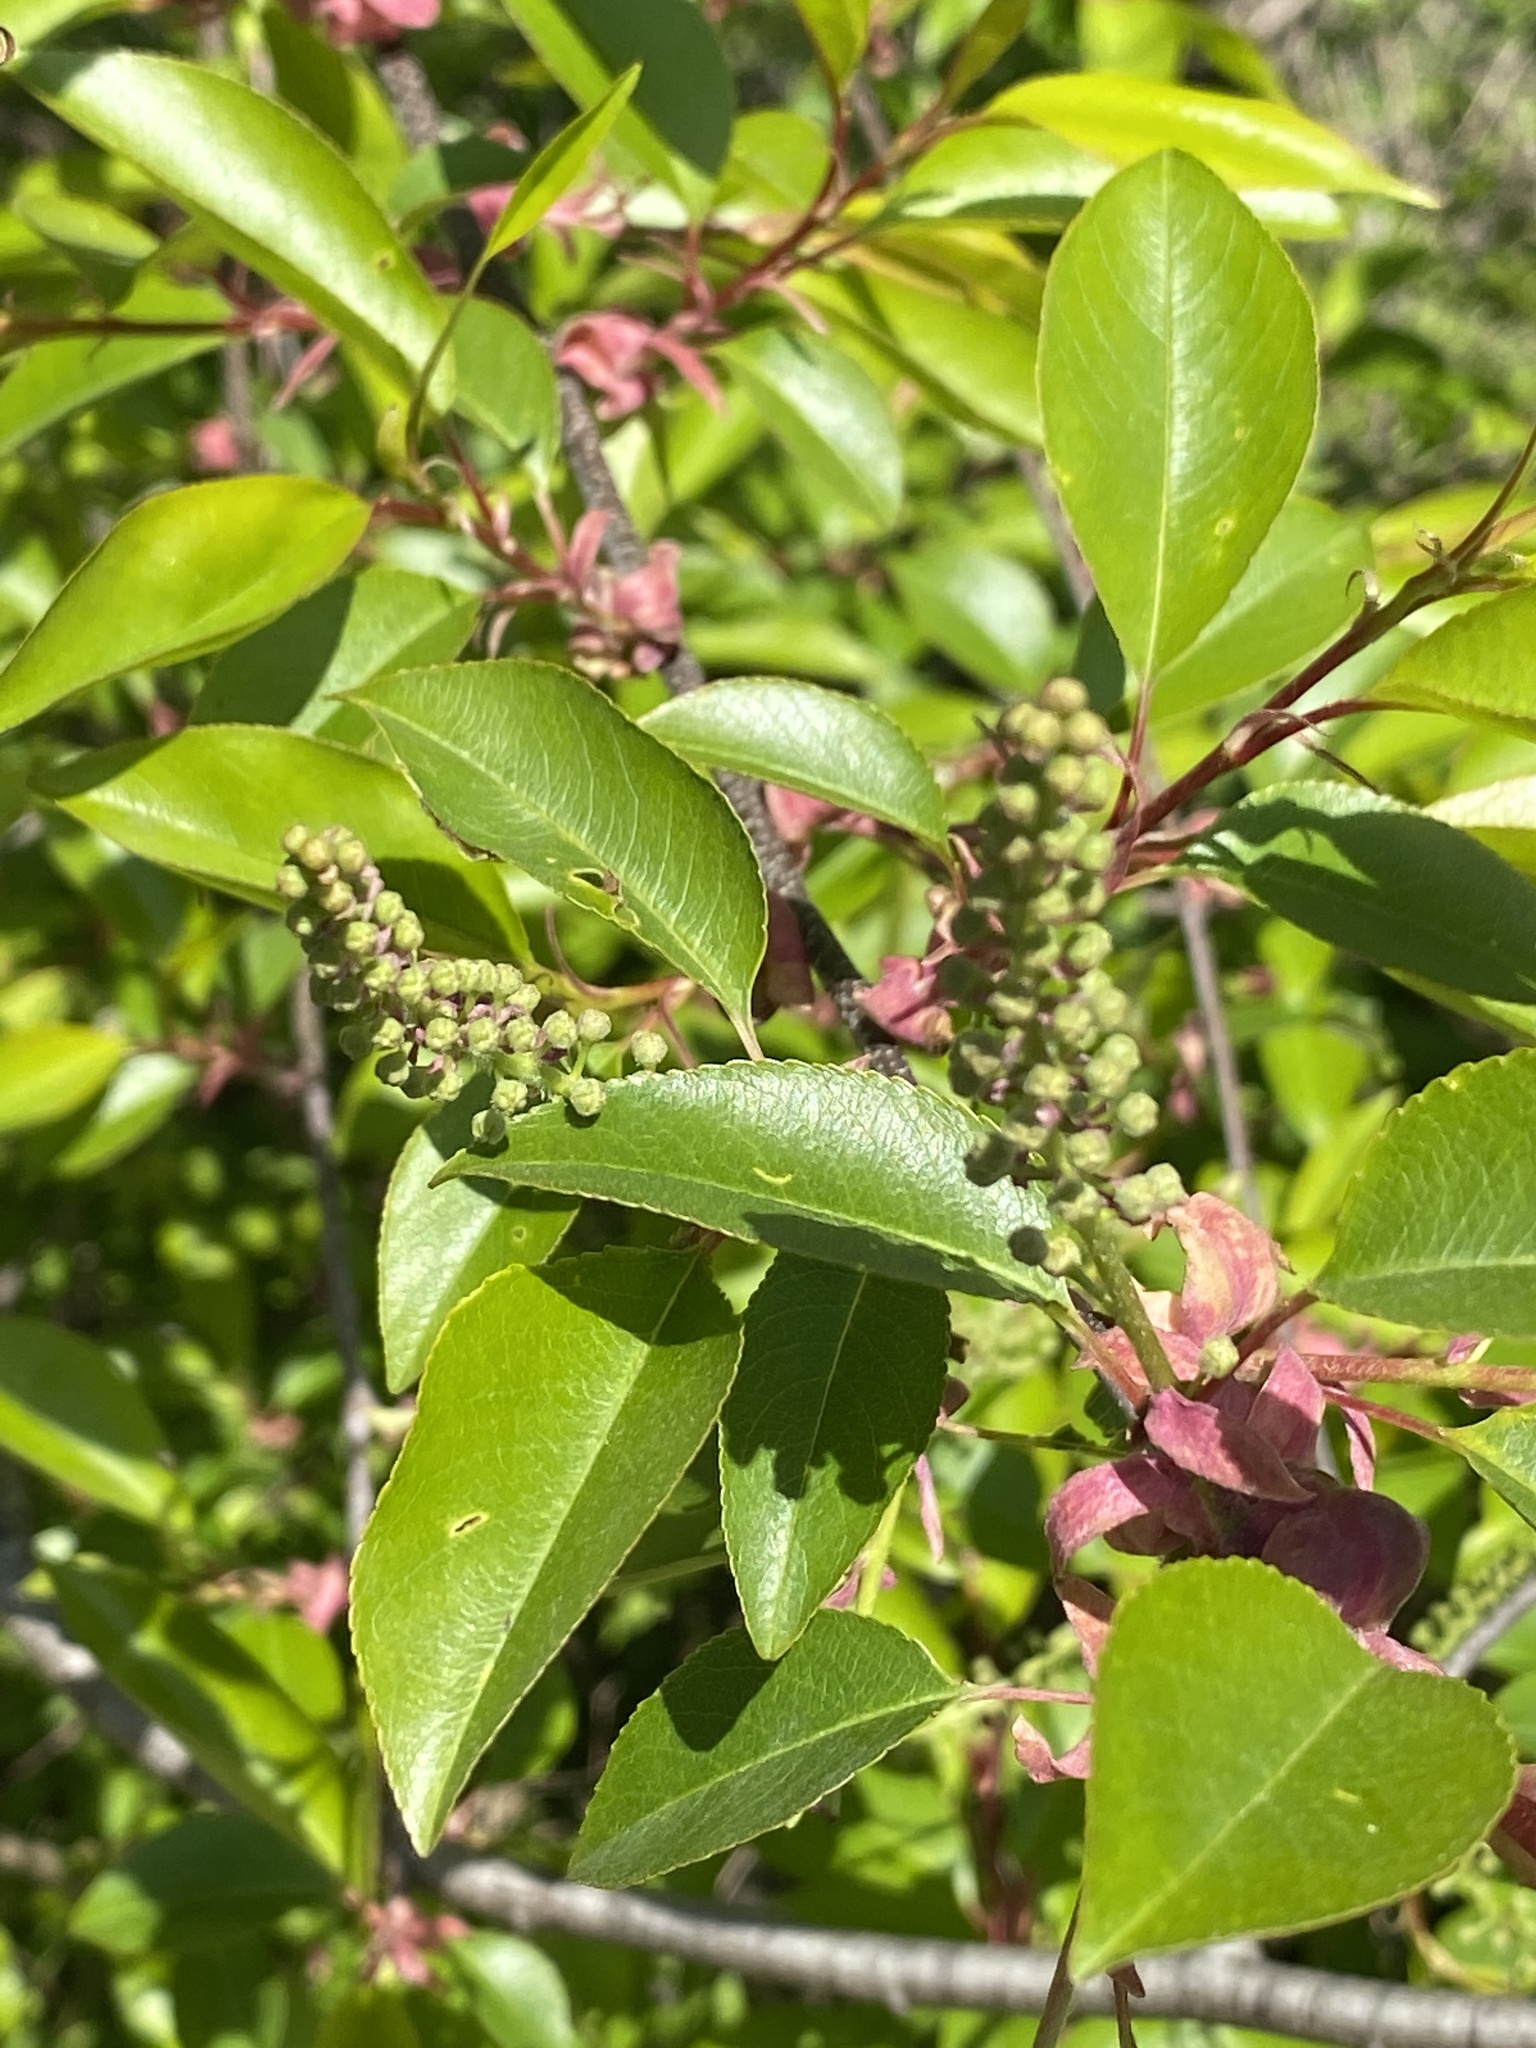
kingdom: Plantae
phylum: Tracheophyta
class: Magnoliopsida
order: Rosales
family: Rosaceae
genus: Prunus
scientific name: Prunus serotina
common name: Black cherry
